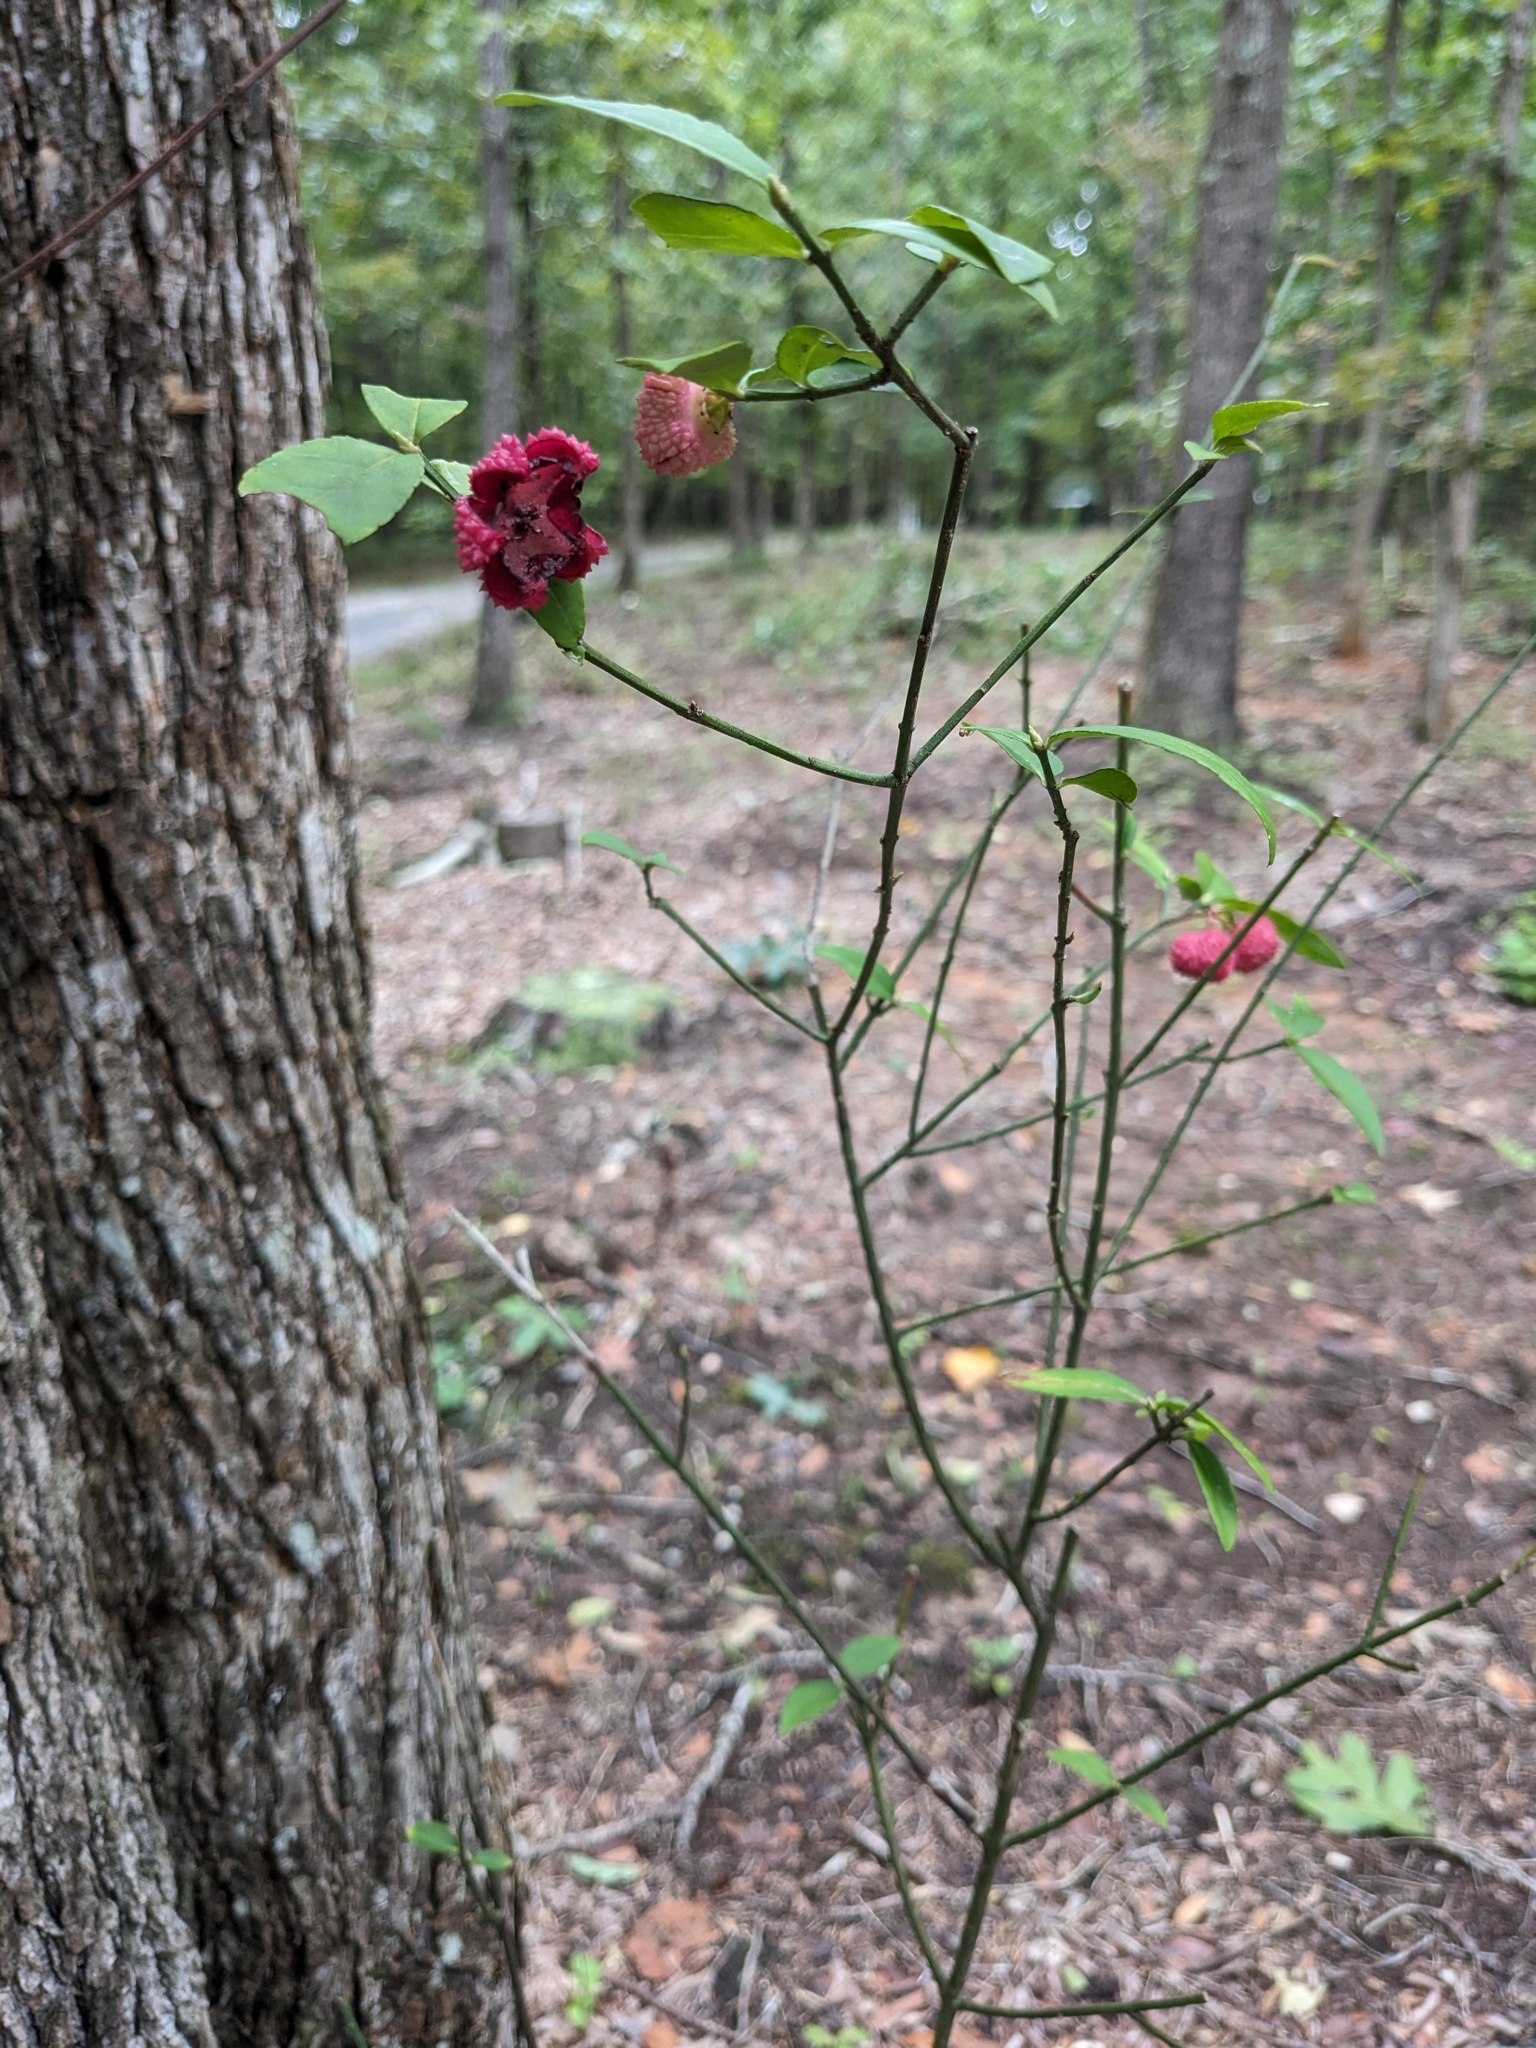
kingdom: Plantae
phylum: Tracheophyta
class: Magnoliopsida
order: Celastrales
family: Celastraceae
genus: Euonymus
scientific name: Euonymus americanus
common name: Bursting-heart
